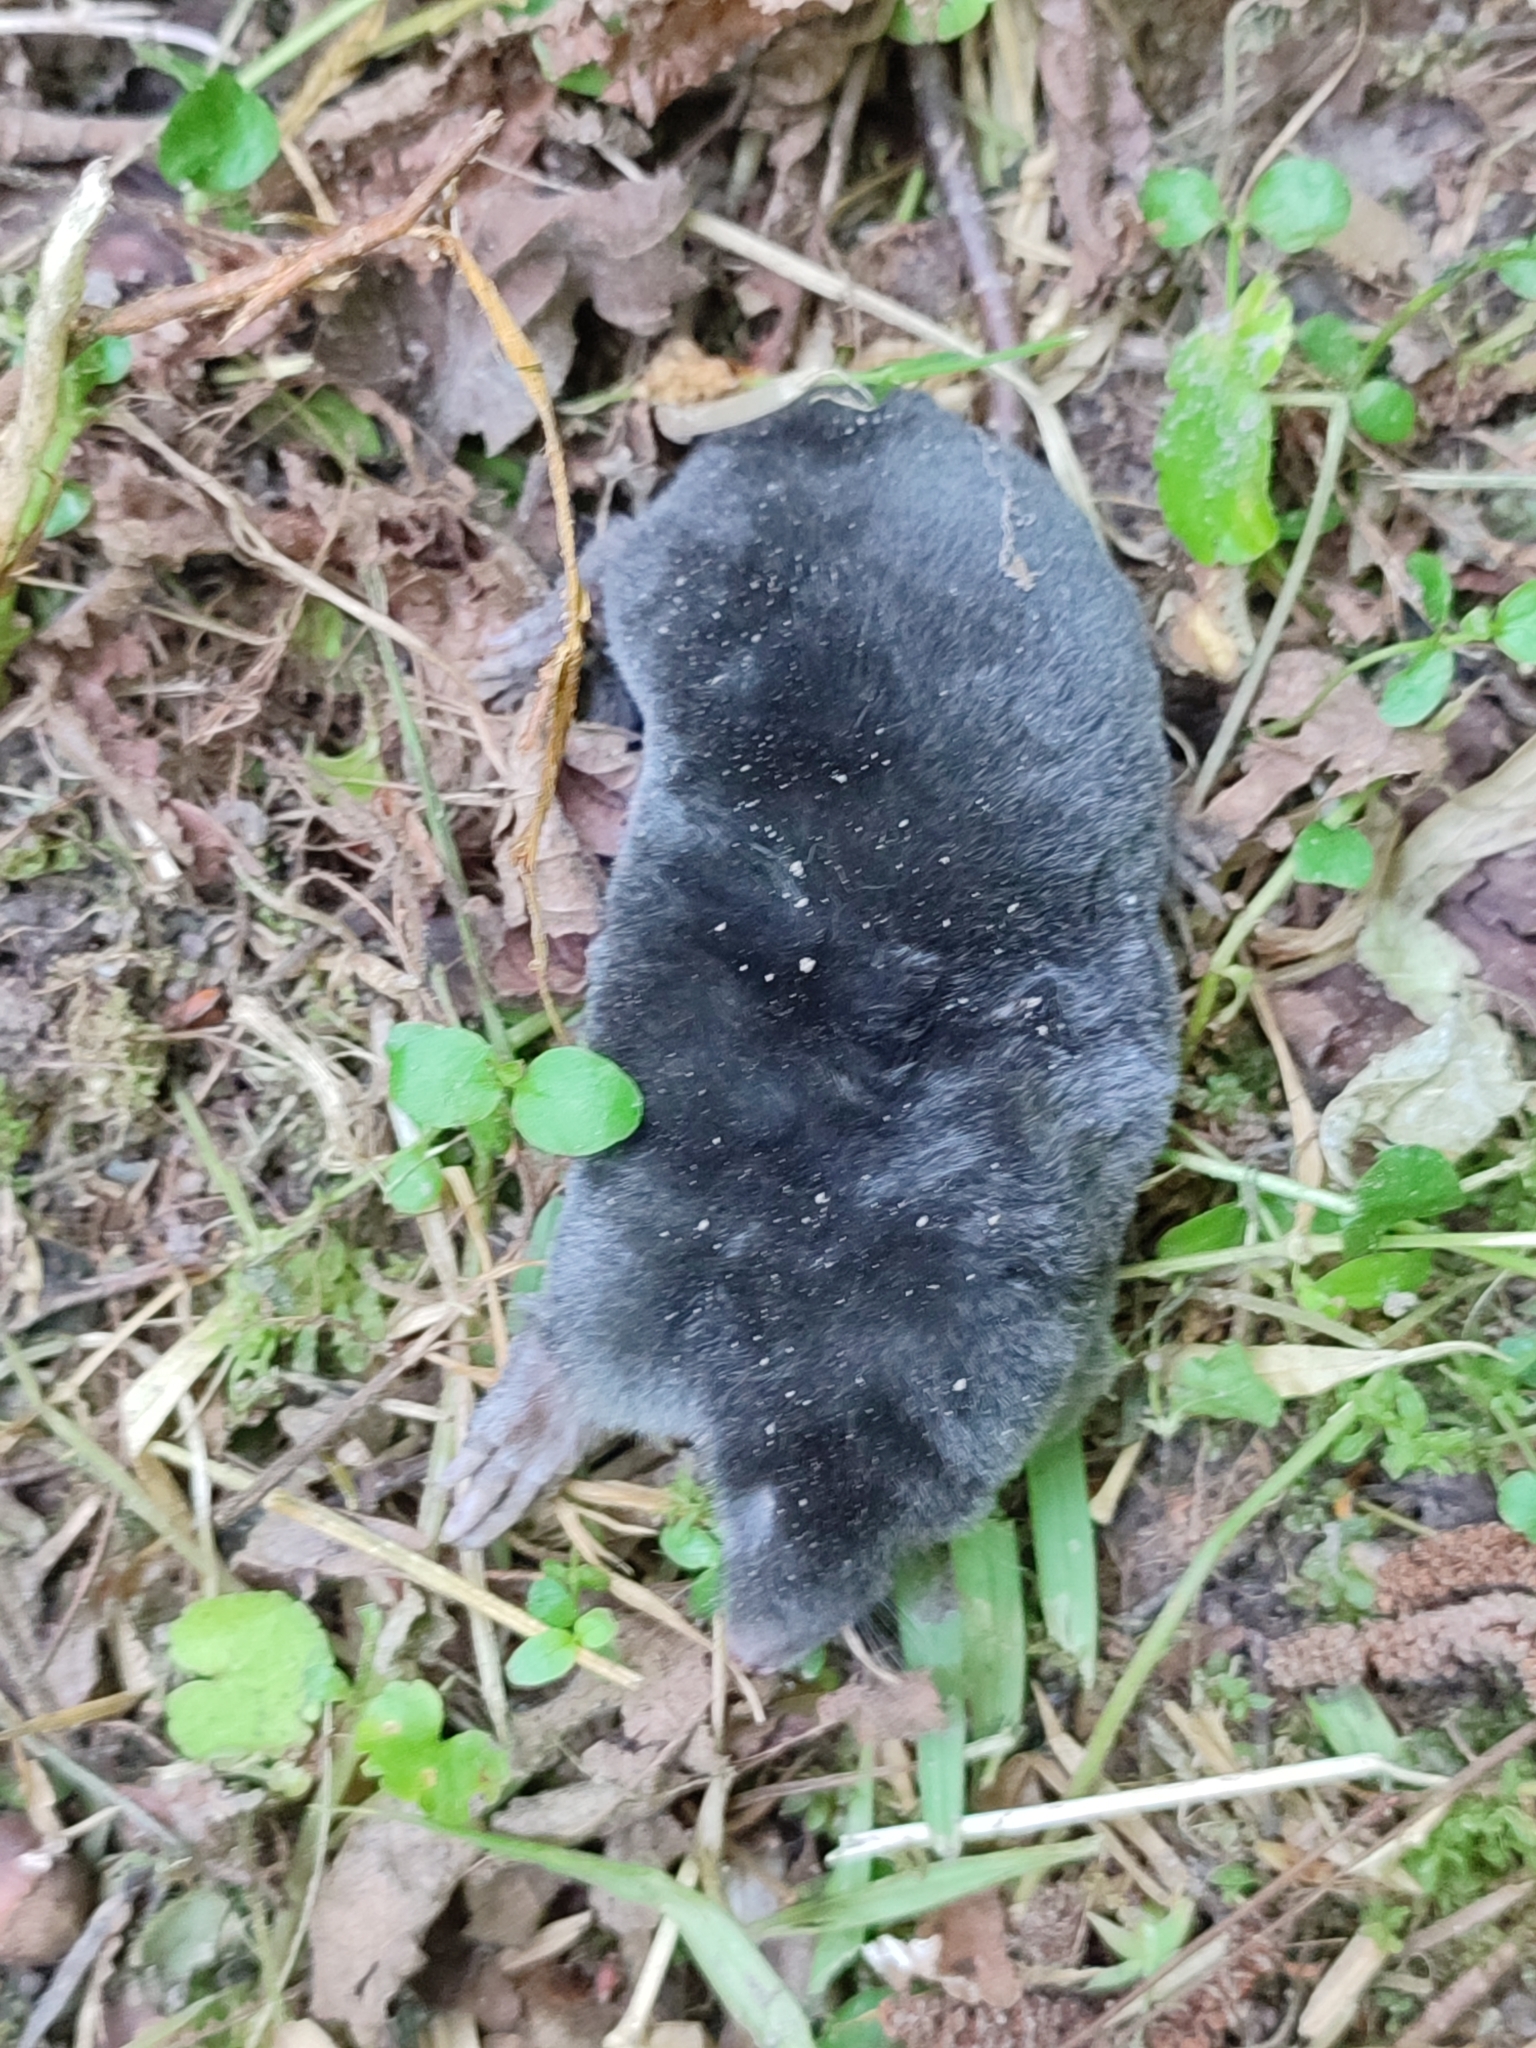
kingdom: Animalia
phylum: Chordata
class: Mammalia
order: Soricomorpha
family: Talpidae
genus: Talpa
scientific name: Talpa europaea
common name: European mole
